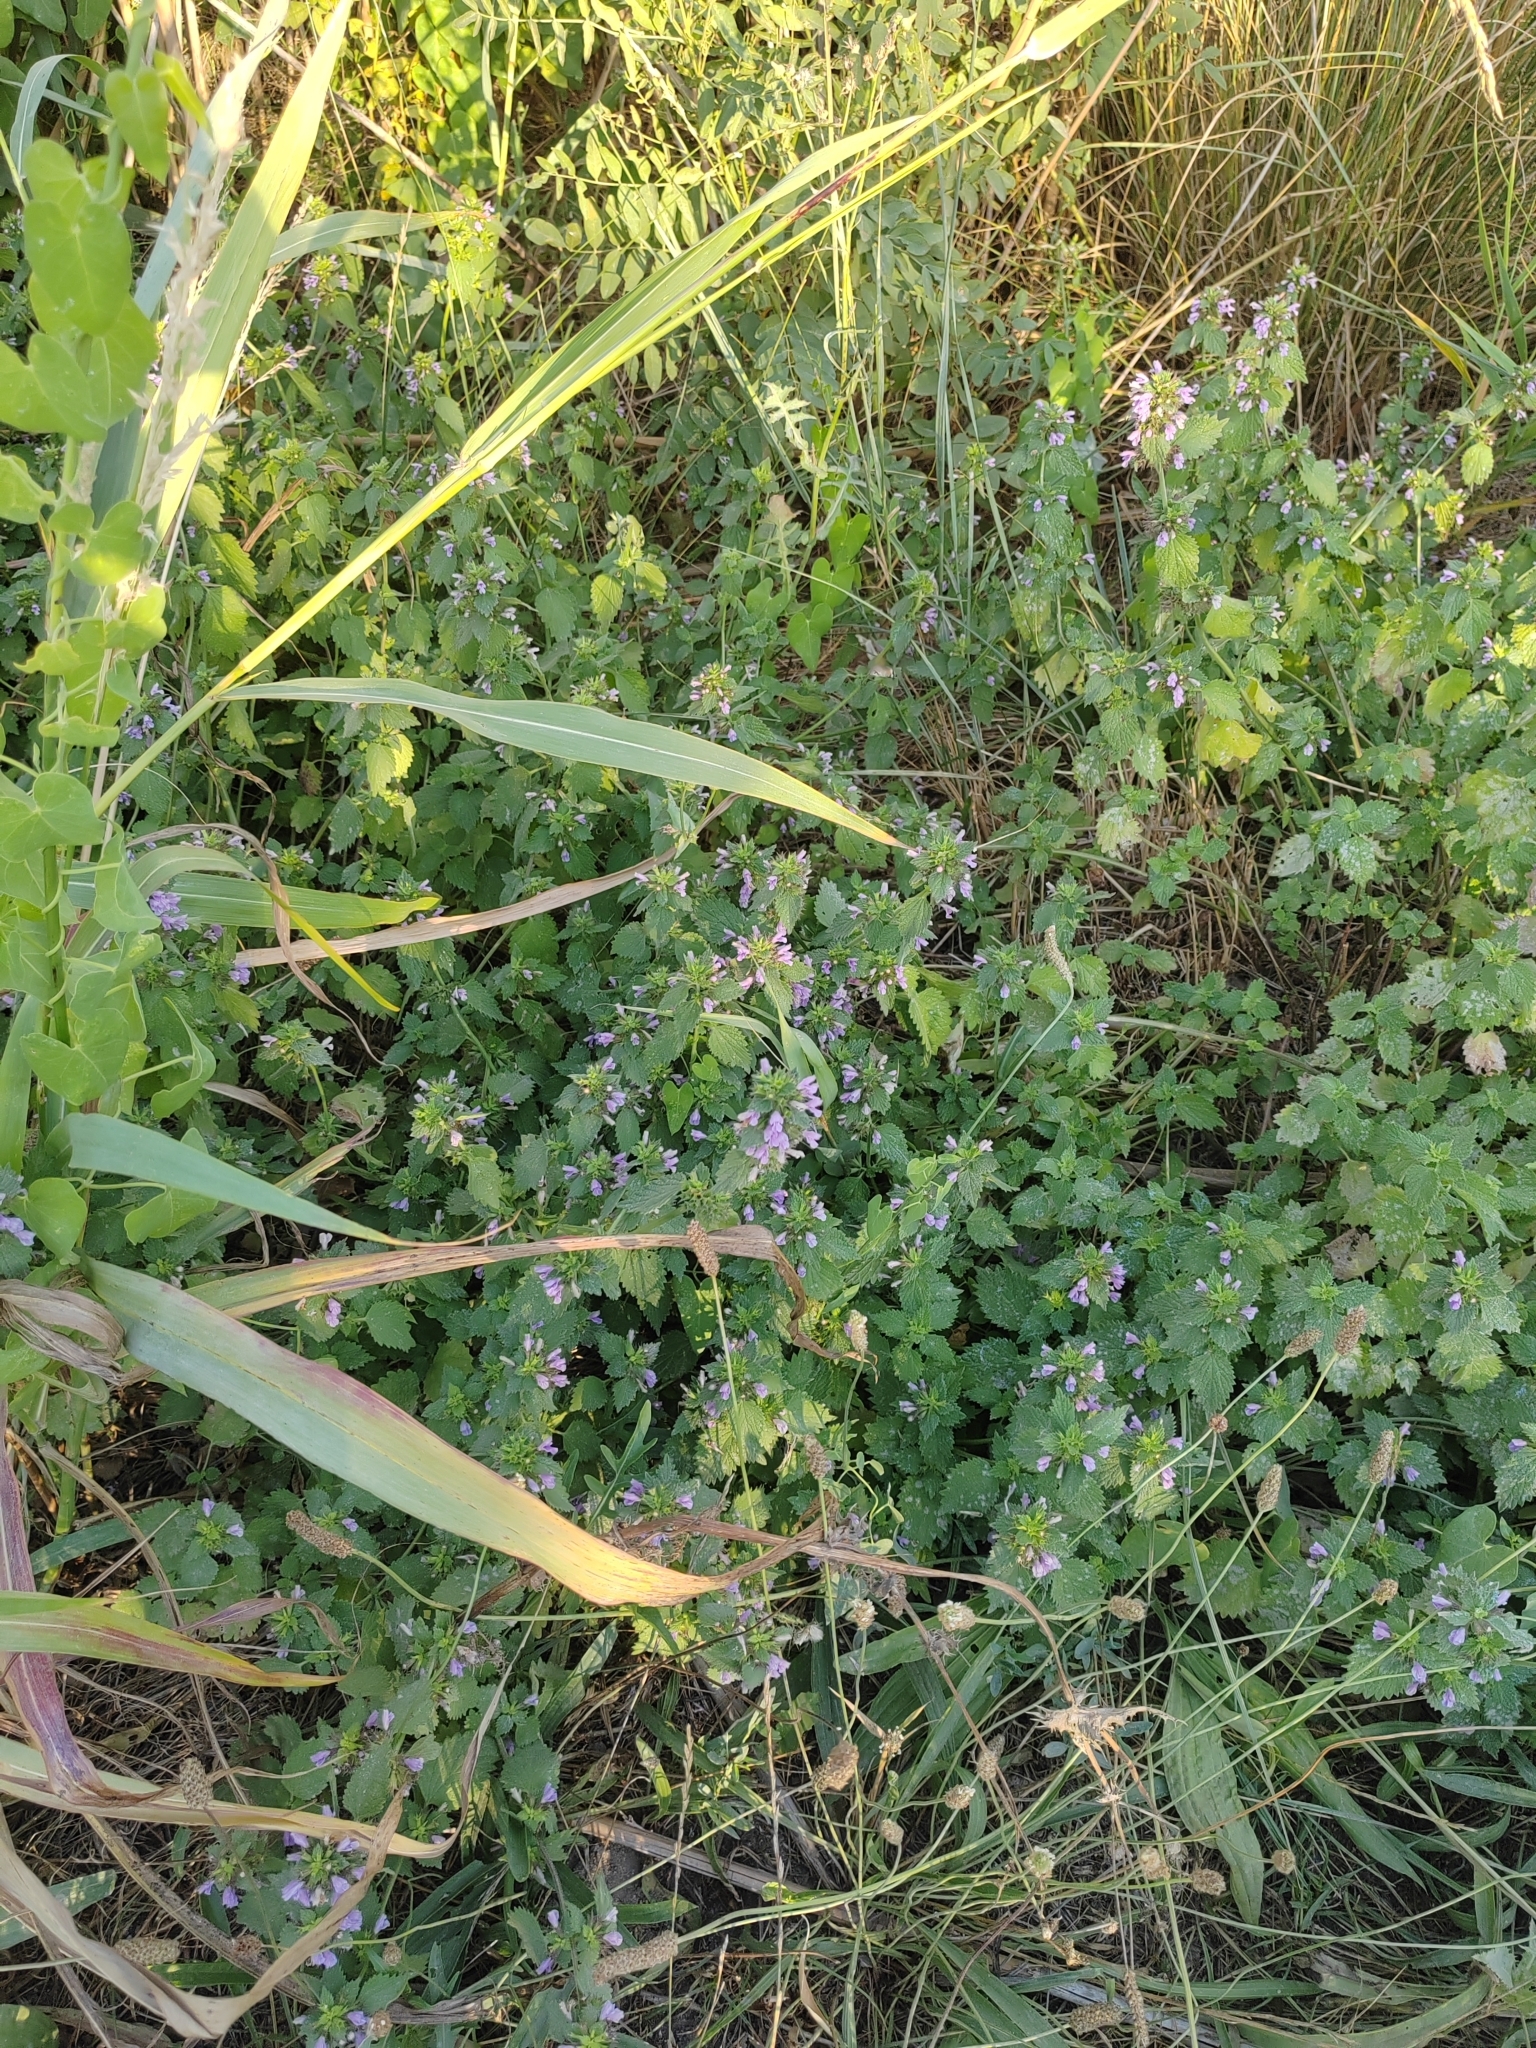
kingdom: Plantae
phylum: Tracheophyta
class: Magnoliopsida
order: Lamiales
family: Lamiaceae
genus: Ballota
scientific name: Ballota nigra
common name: Black horehound
